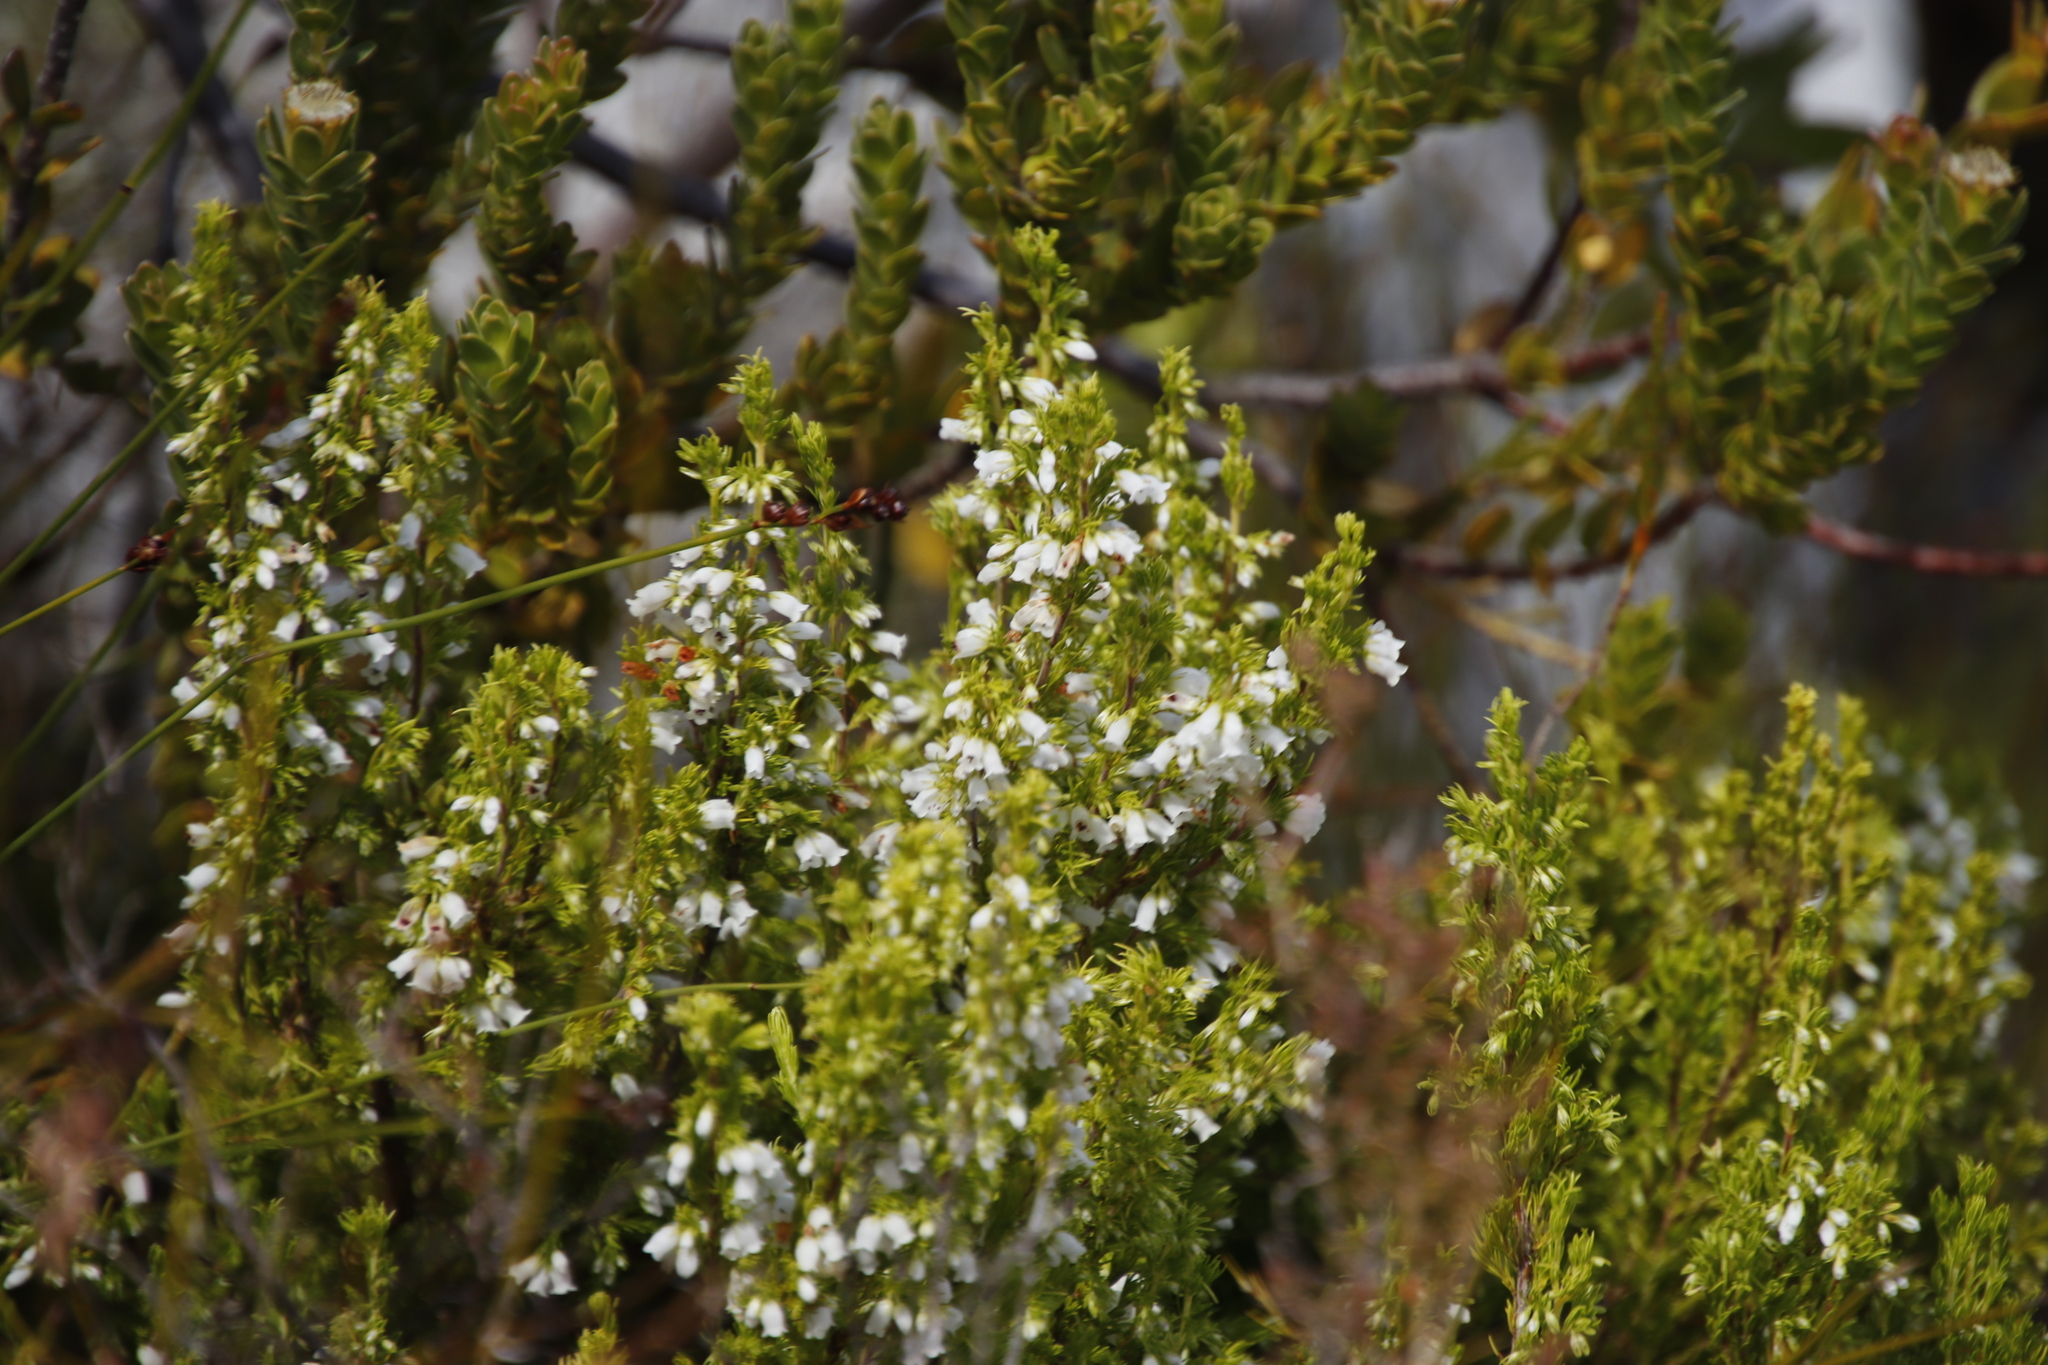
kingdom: Plantae
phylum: Tracheophyta
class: Magnoliopsida
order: Ericales
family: Ericaceae
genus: Erica
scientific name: Erica sitiens
